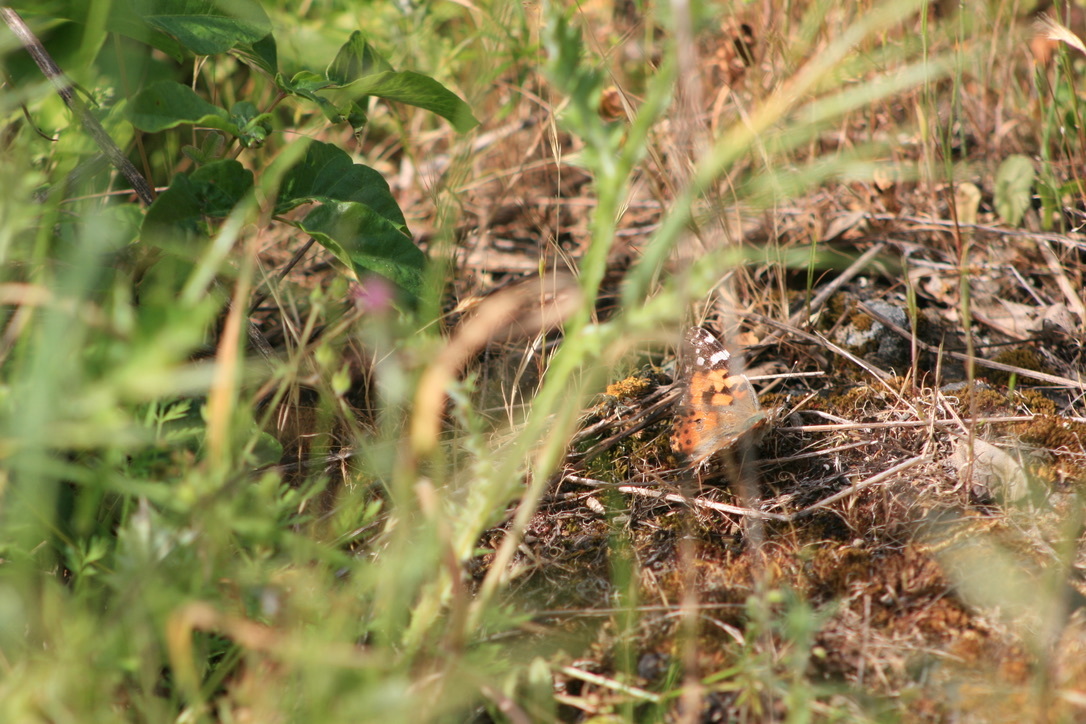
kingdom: Animalia
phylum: Arthropoda
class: Insecta
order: Lepidoptera
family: Nymphalidae
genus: Vanessa
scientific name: Vanessa cardui
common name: Painted lady
